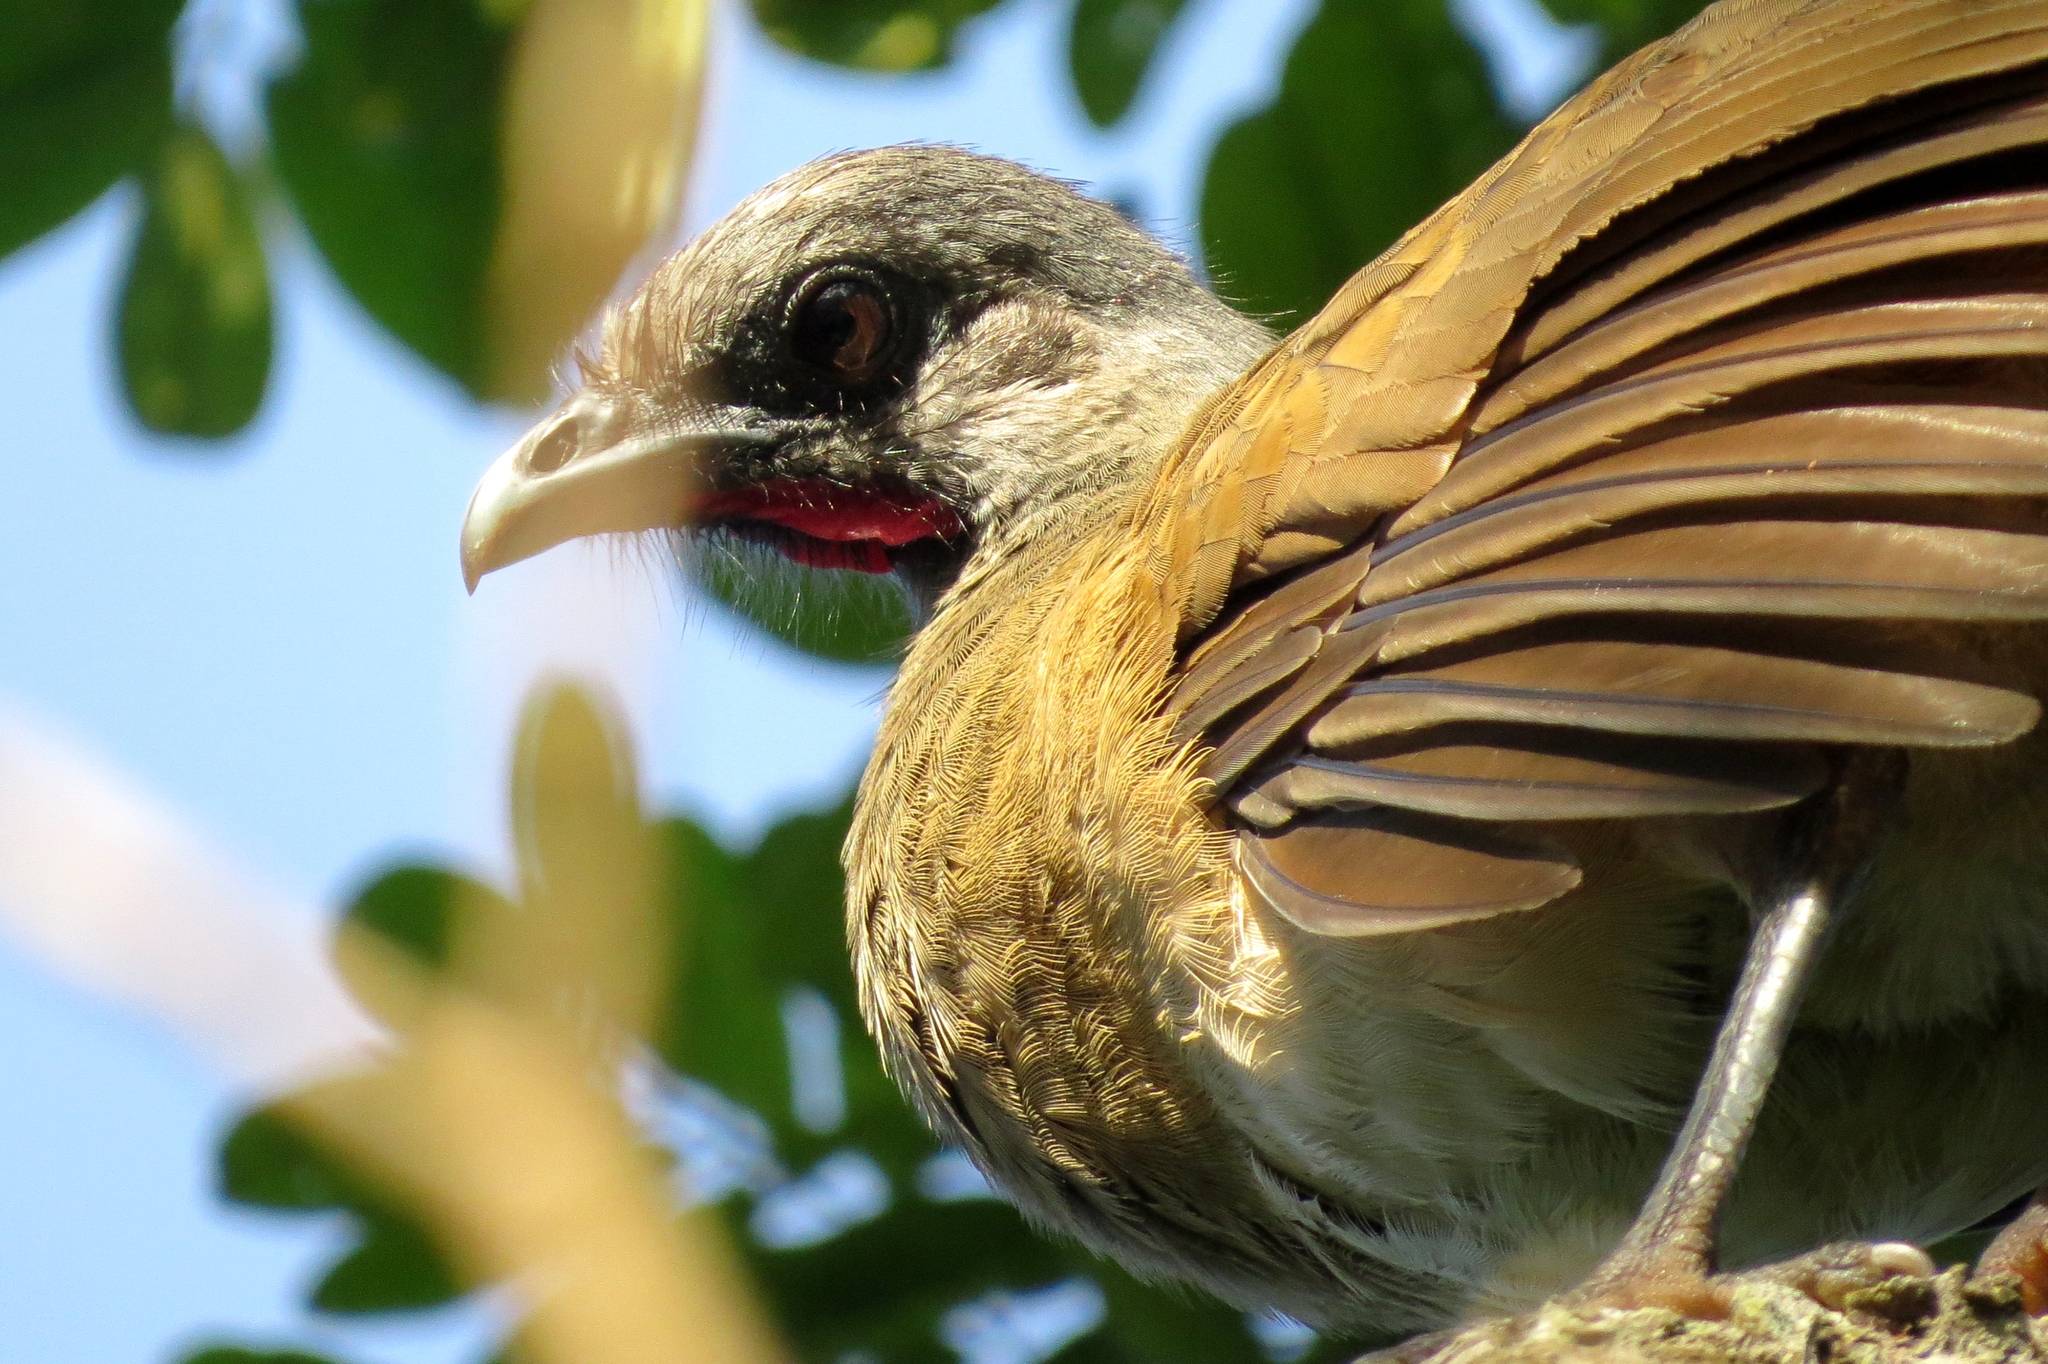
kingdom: Animalia
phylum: Chordata
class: Aves
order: Galliformes
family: Cracidae
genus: Ortalis
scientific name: Ortalis vetula
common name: Plain chachalaca
